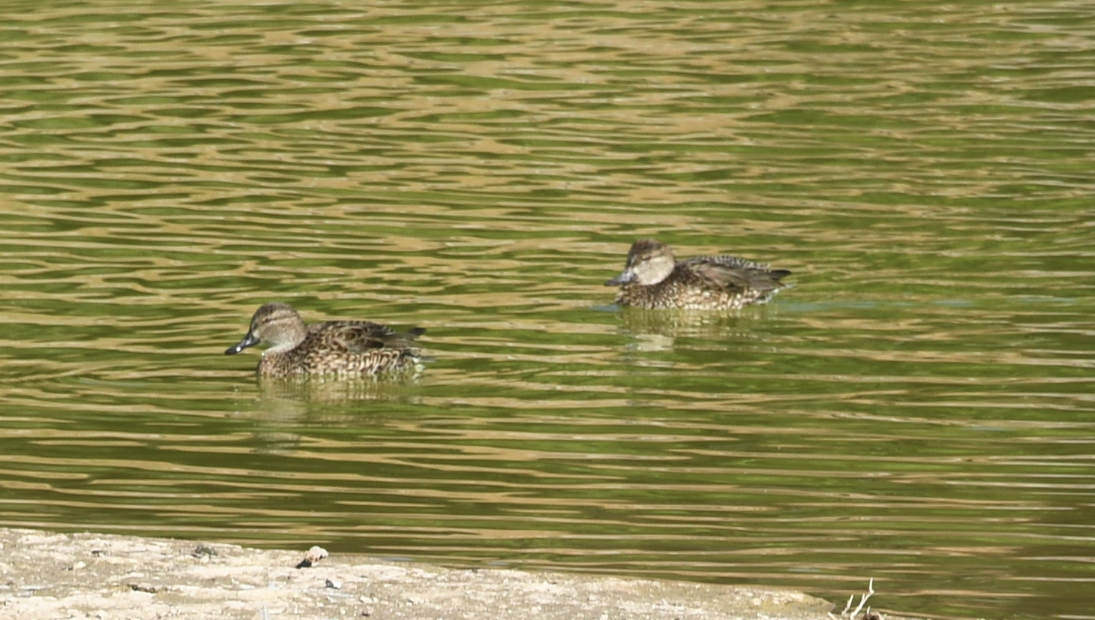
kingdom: Animalia
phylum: Chordata
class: Aves
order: Anseriformes
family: Anatidae
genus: Spatula
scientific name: Spatula discors
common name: Blue-winged teal
